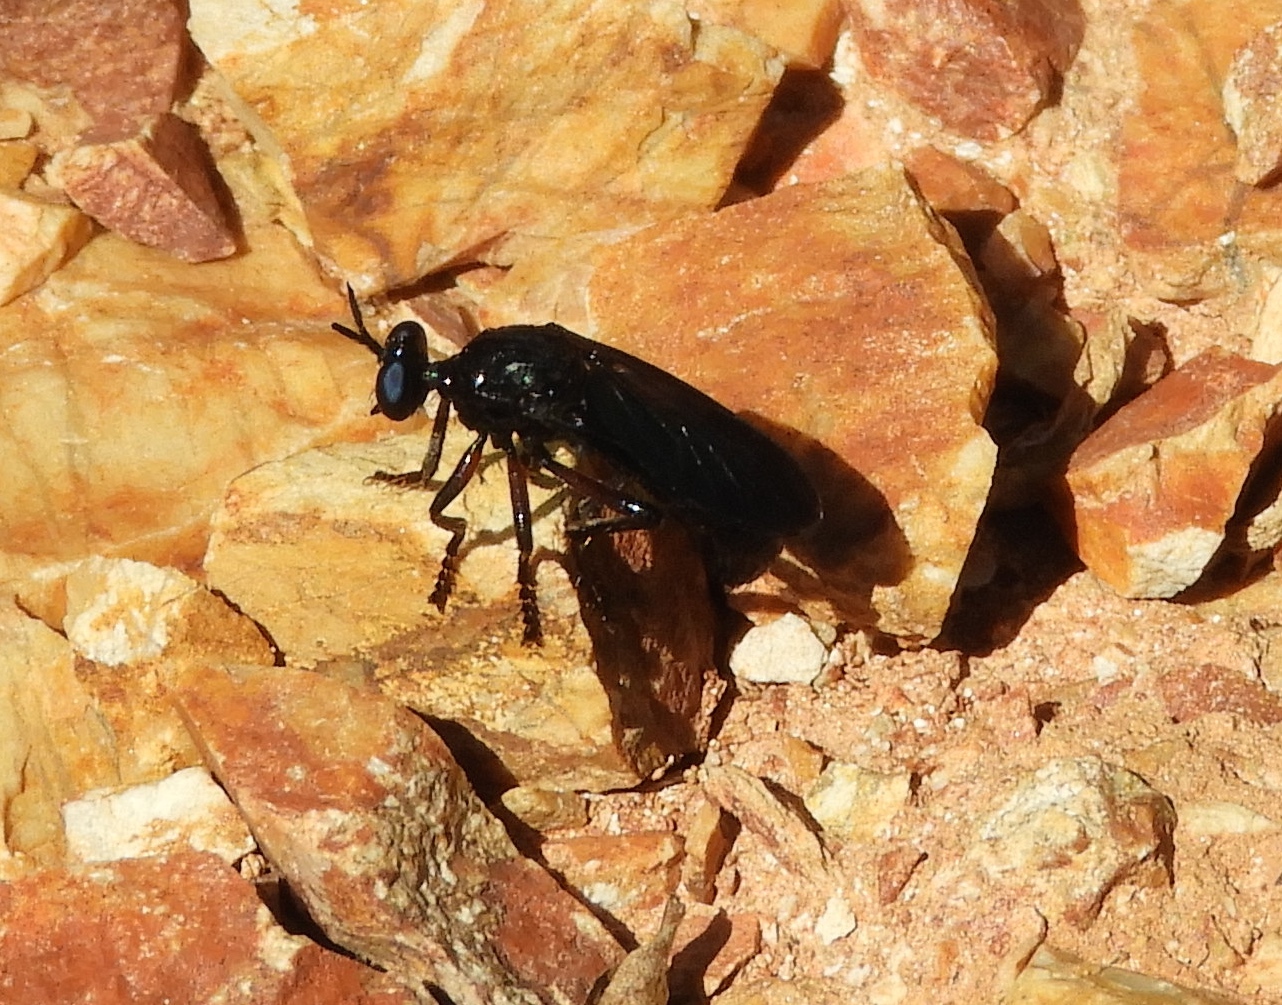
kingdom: Animalia
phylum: Arthropoda
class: Insecta
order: Diptera
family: Asilidae
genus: Saropogon
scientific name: Saropogon
